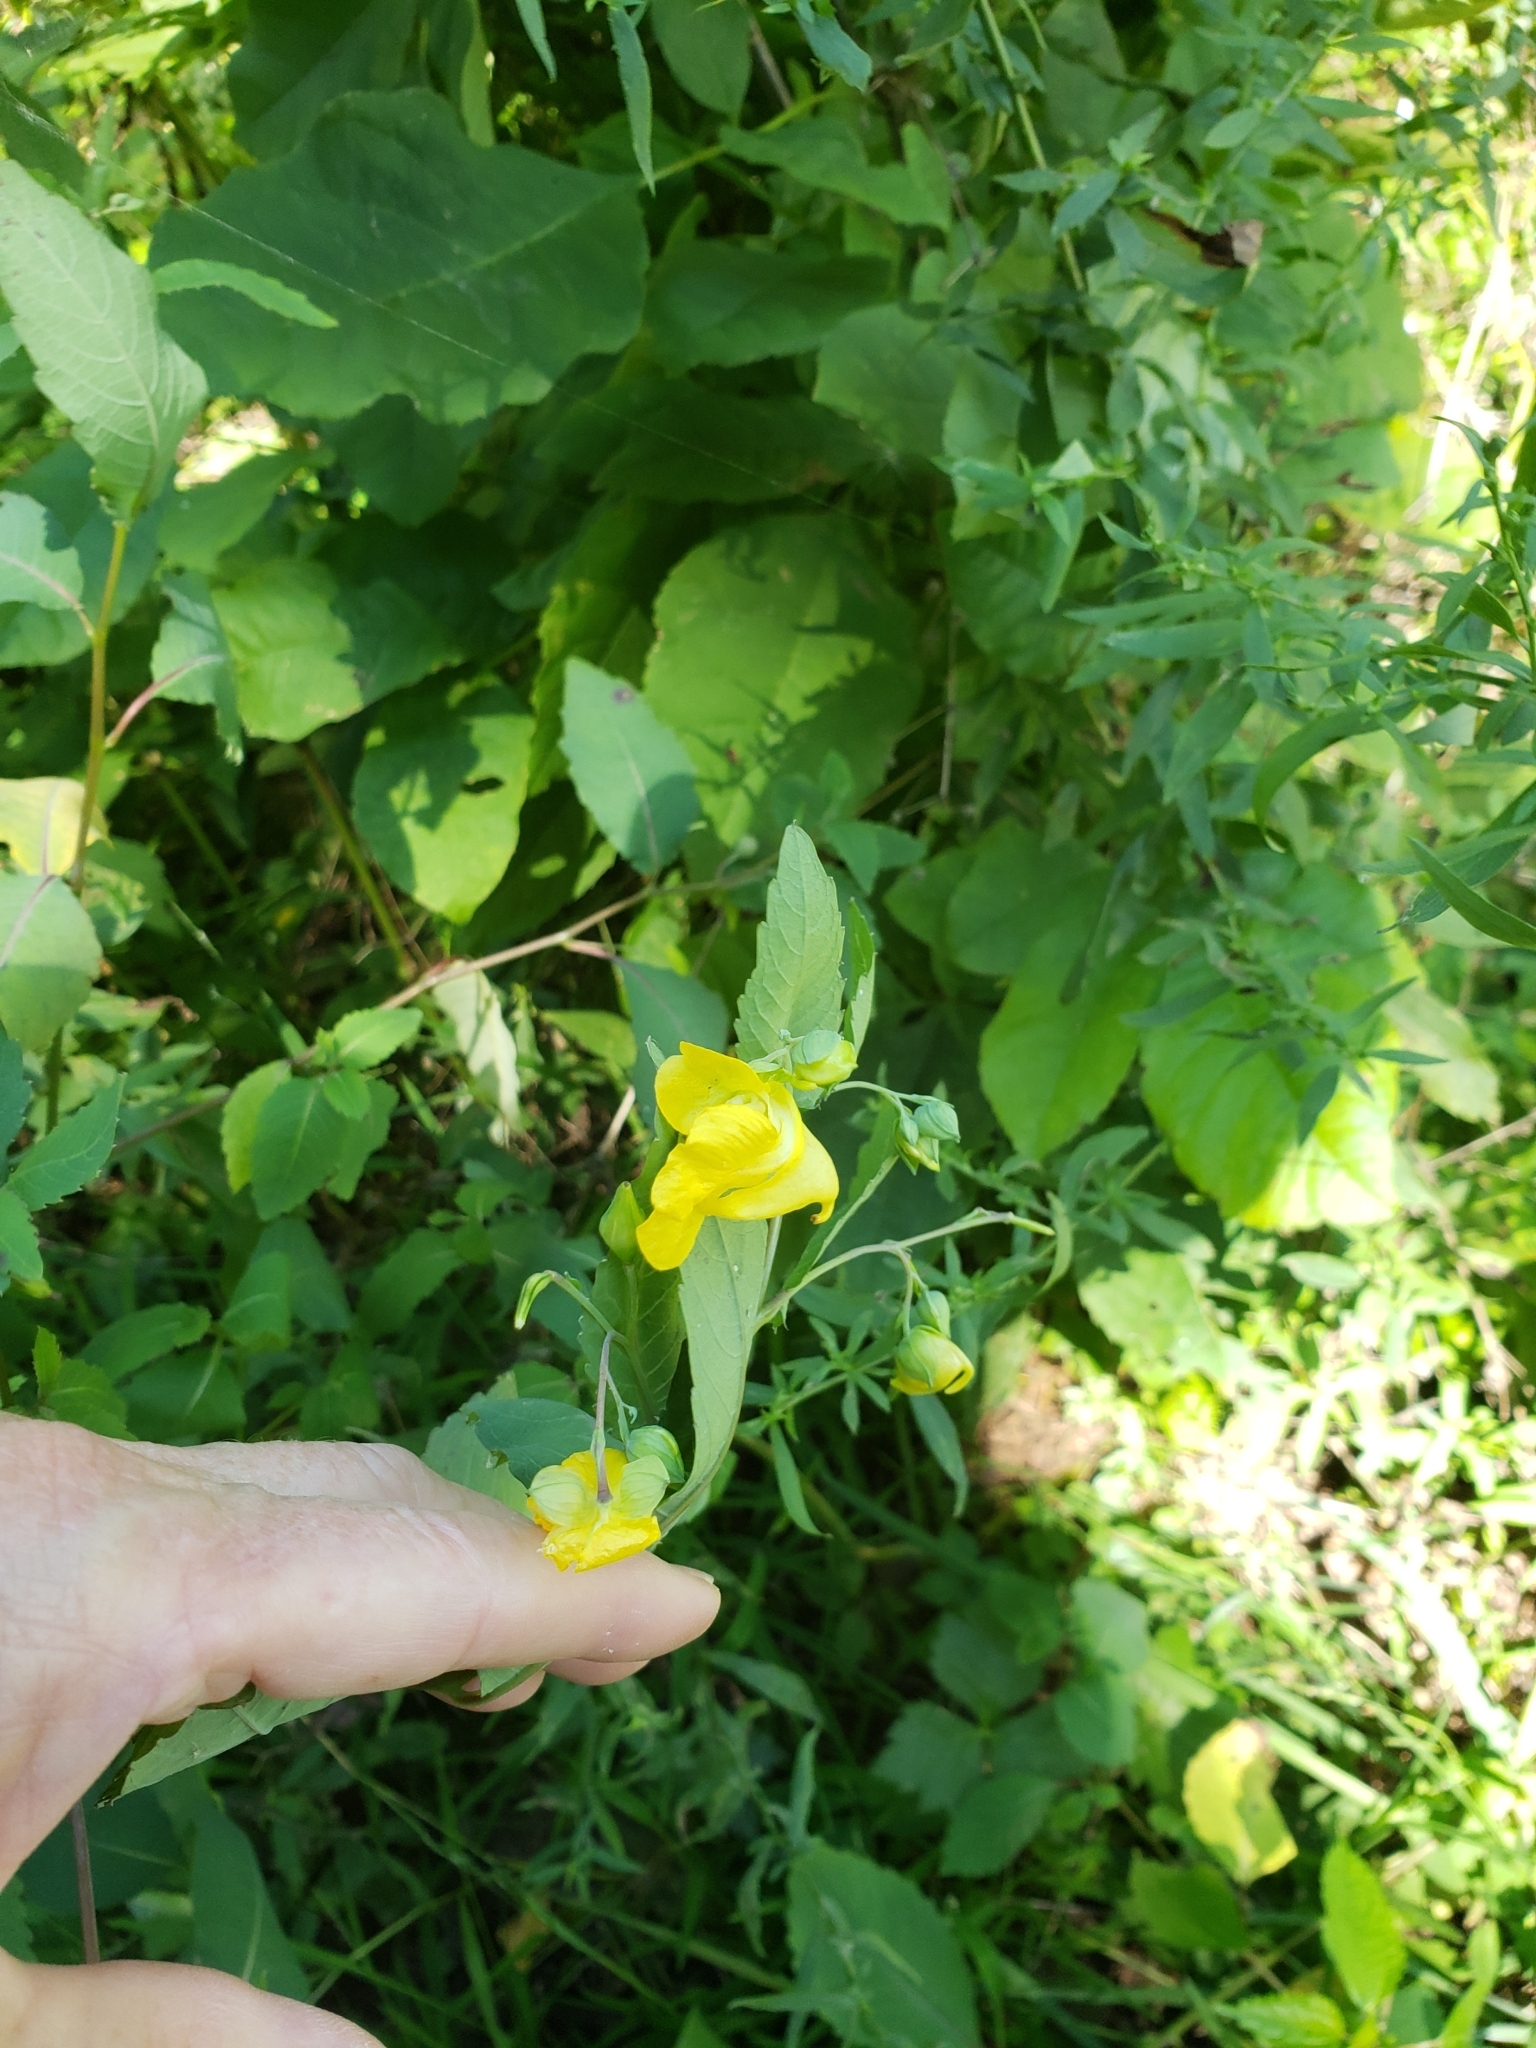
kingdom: Plantae
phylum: Tracheophyta
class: Magnoliopsida
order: Ericales
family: Balsaminaceae
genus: Impatiens
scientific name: Impatiens pallida
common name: Pale snapweed
